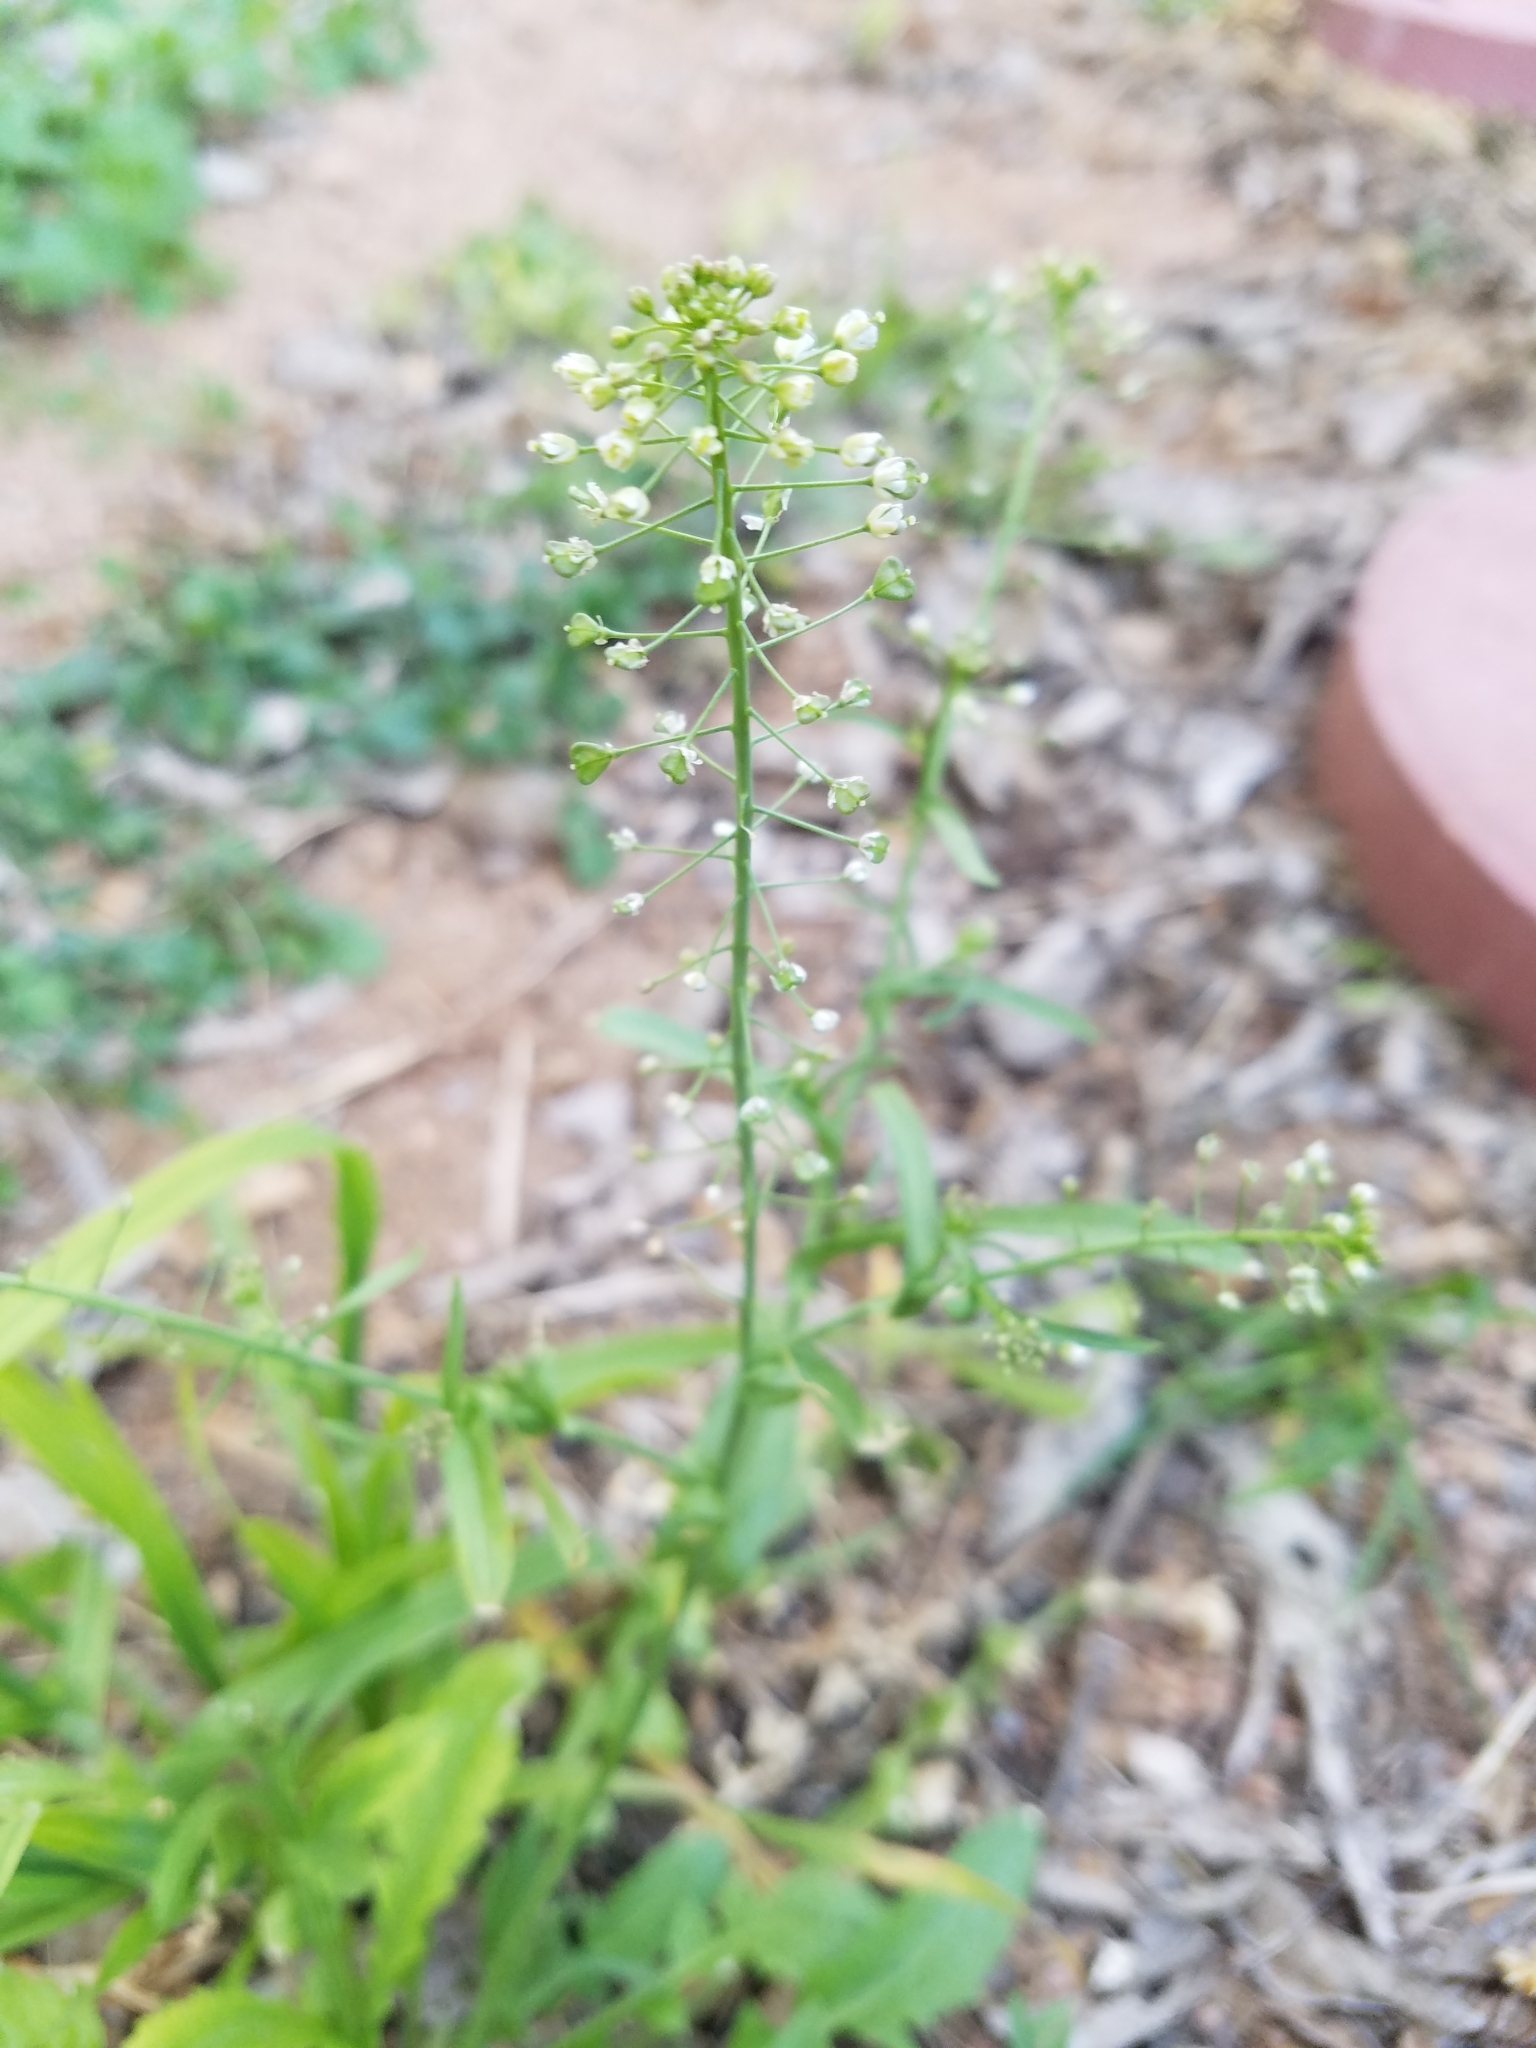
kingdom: Plantae
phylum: Tracheophyta
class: Magnoliopsida
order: Brassicales
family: Brassicaceae
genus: Capsella
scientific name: Capsella bursa-pastoris
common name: Shepherd's purse
